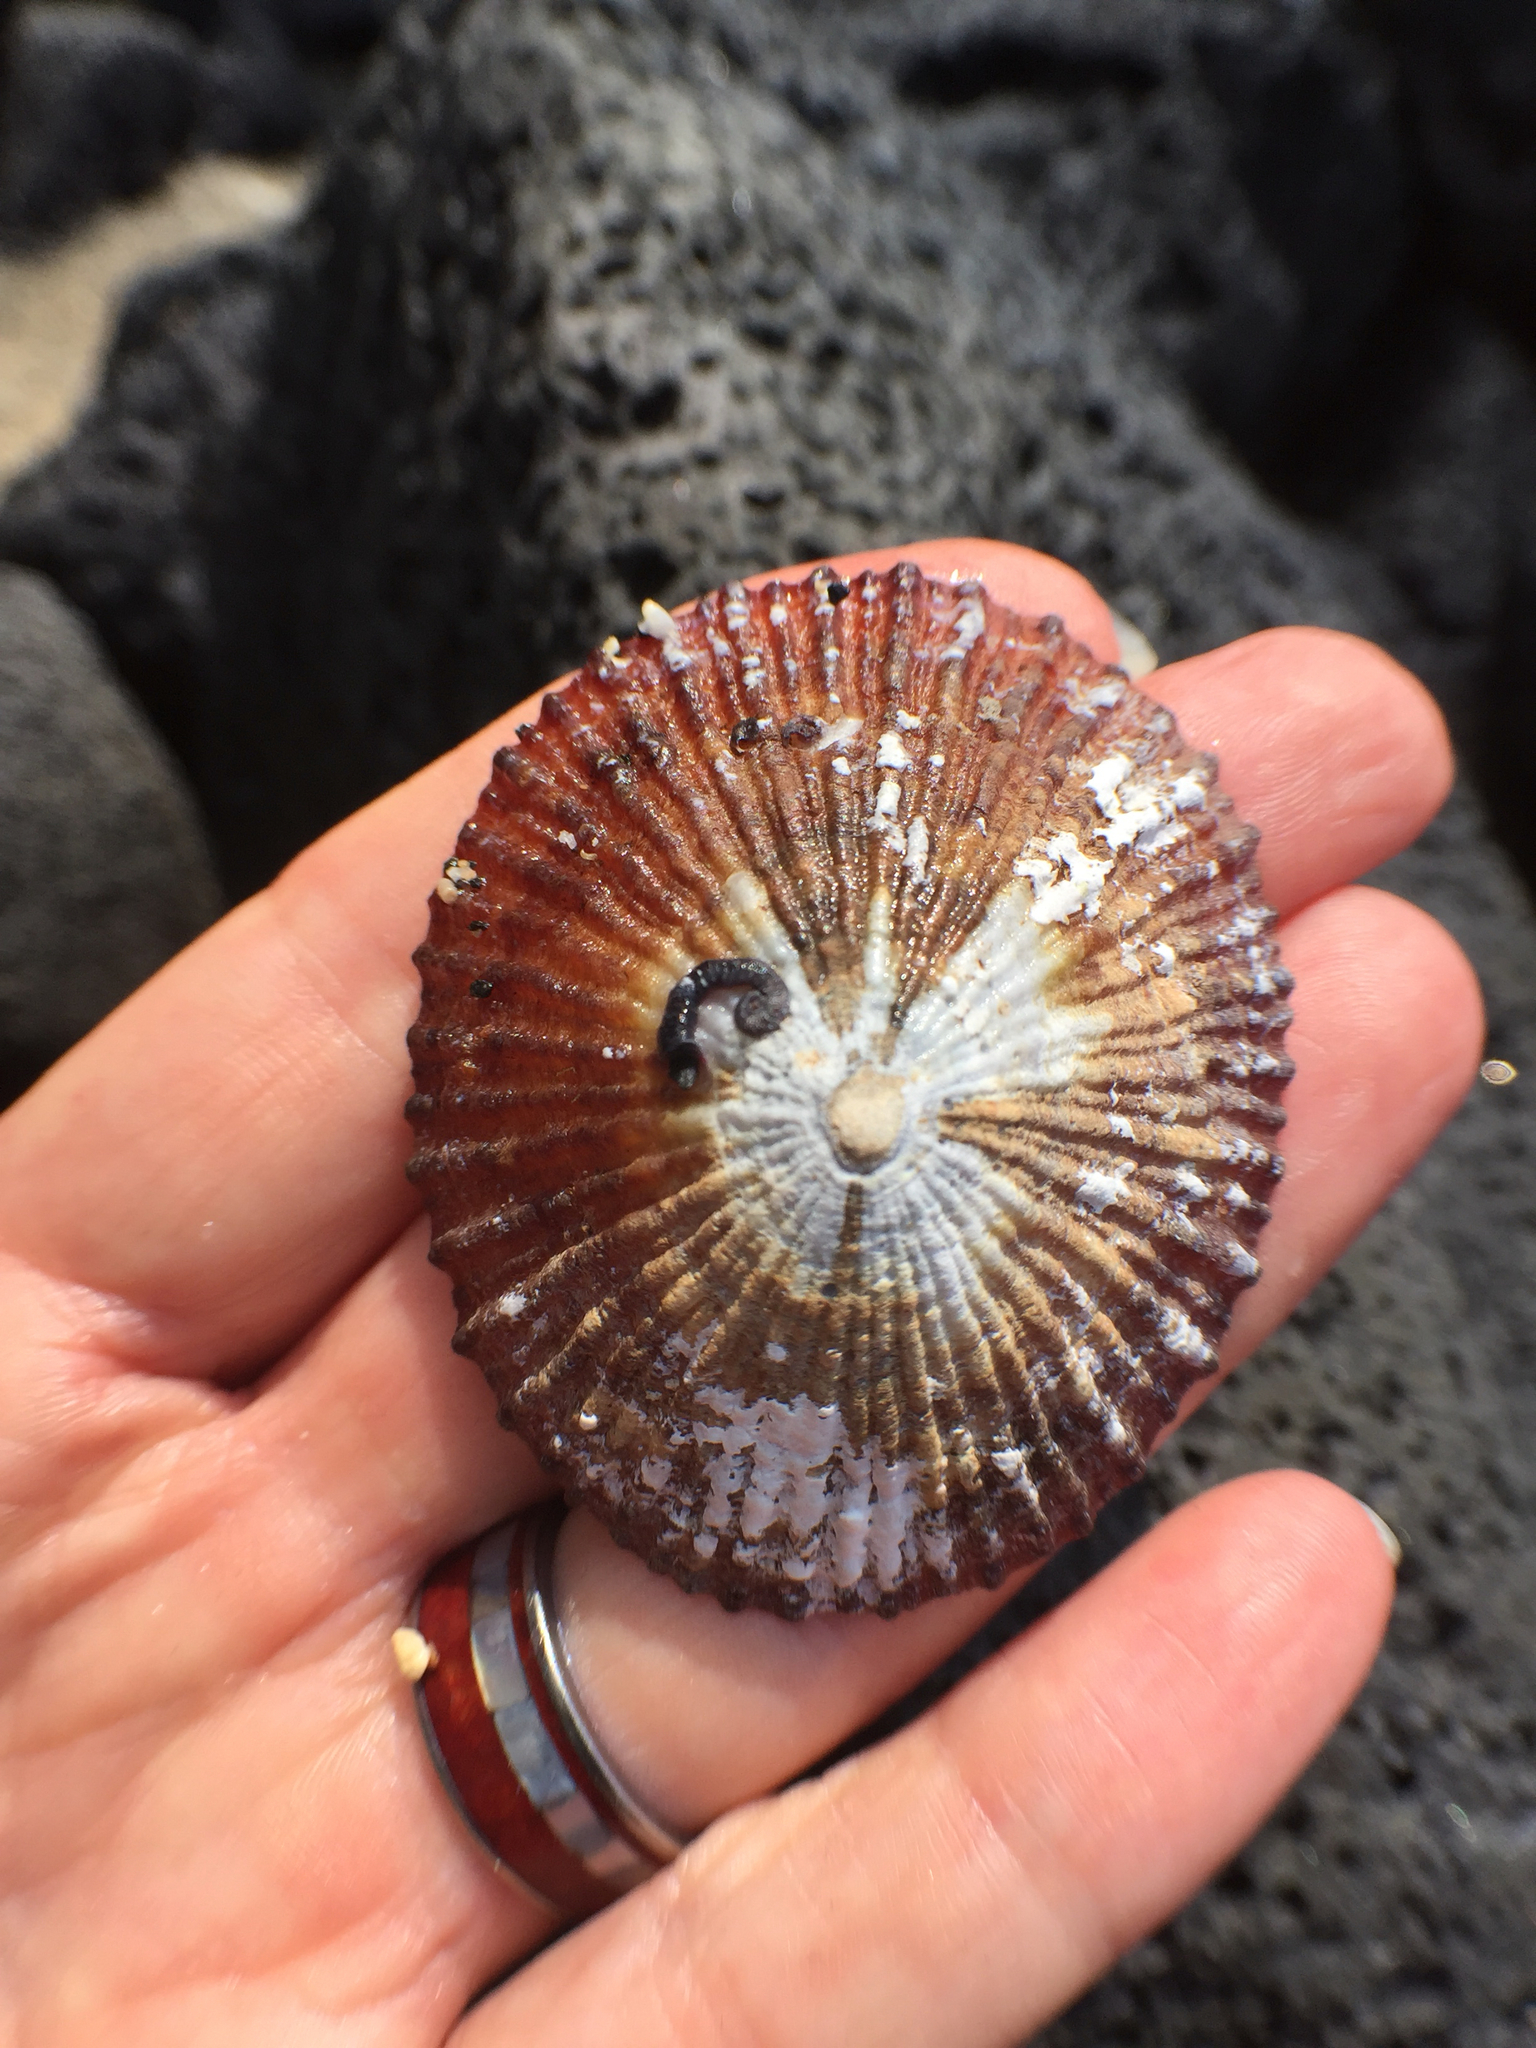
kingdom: Animalia
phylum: Mollusca
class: Gastropoda
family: Nacellidae
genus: Cellana
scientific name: Cellana sandwicensis
